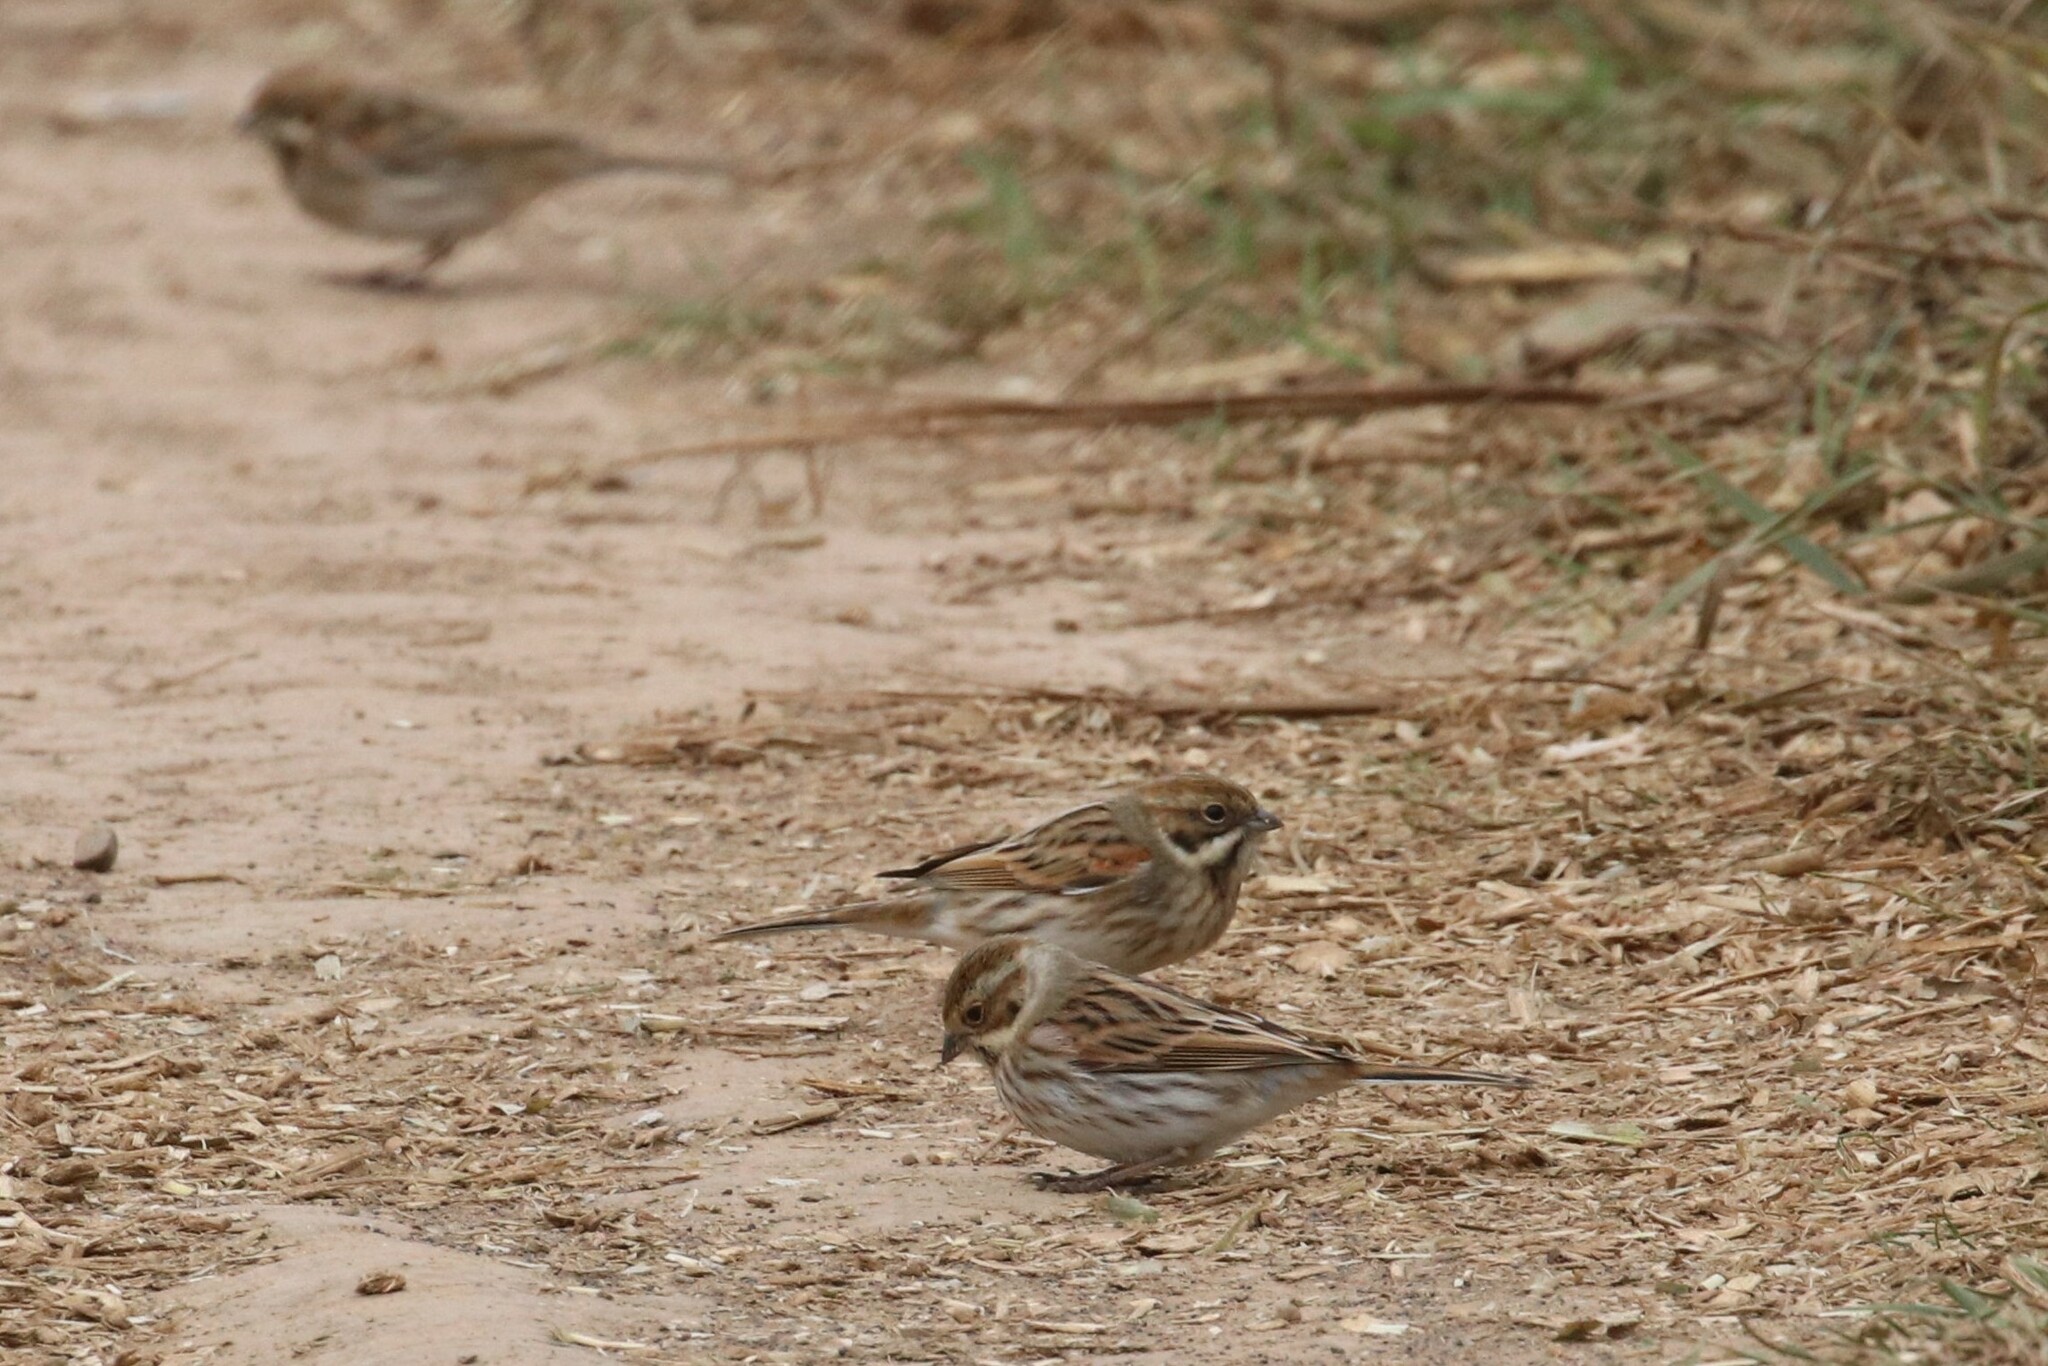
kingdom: Animalia
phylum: Chordata
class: Aves
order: Passeriformes
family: Emberizidae
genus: Emberiza
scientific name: Emberiza schoeniclus
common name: Reed bunting
